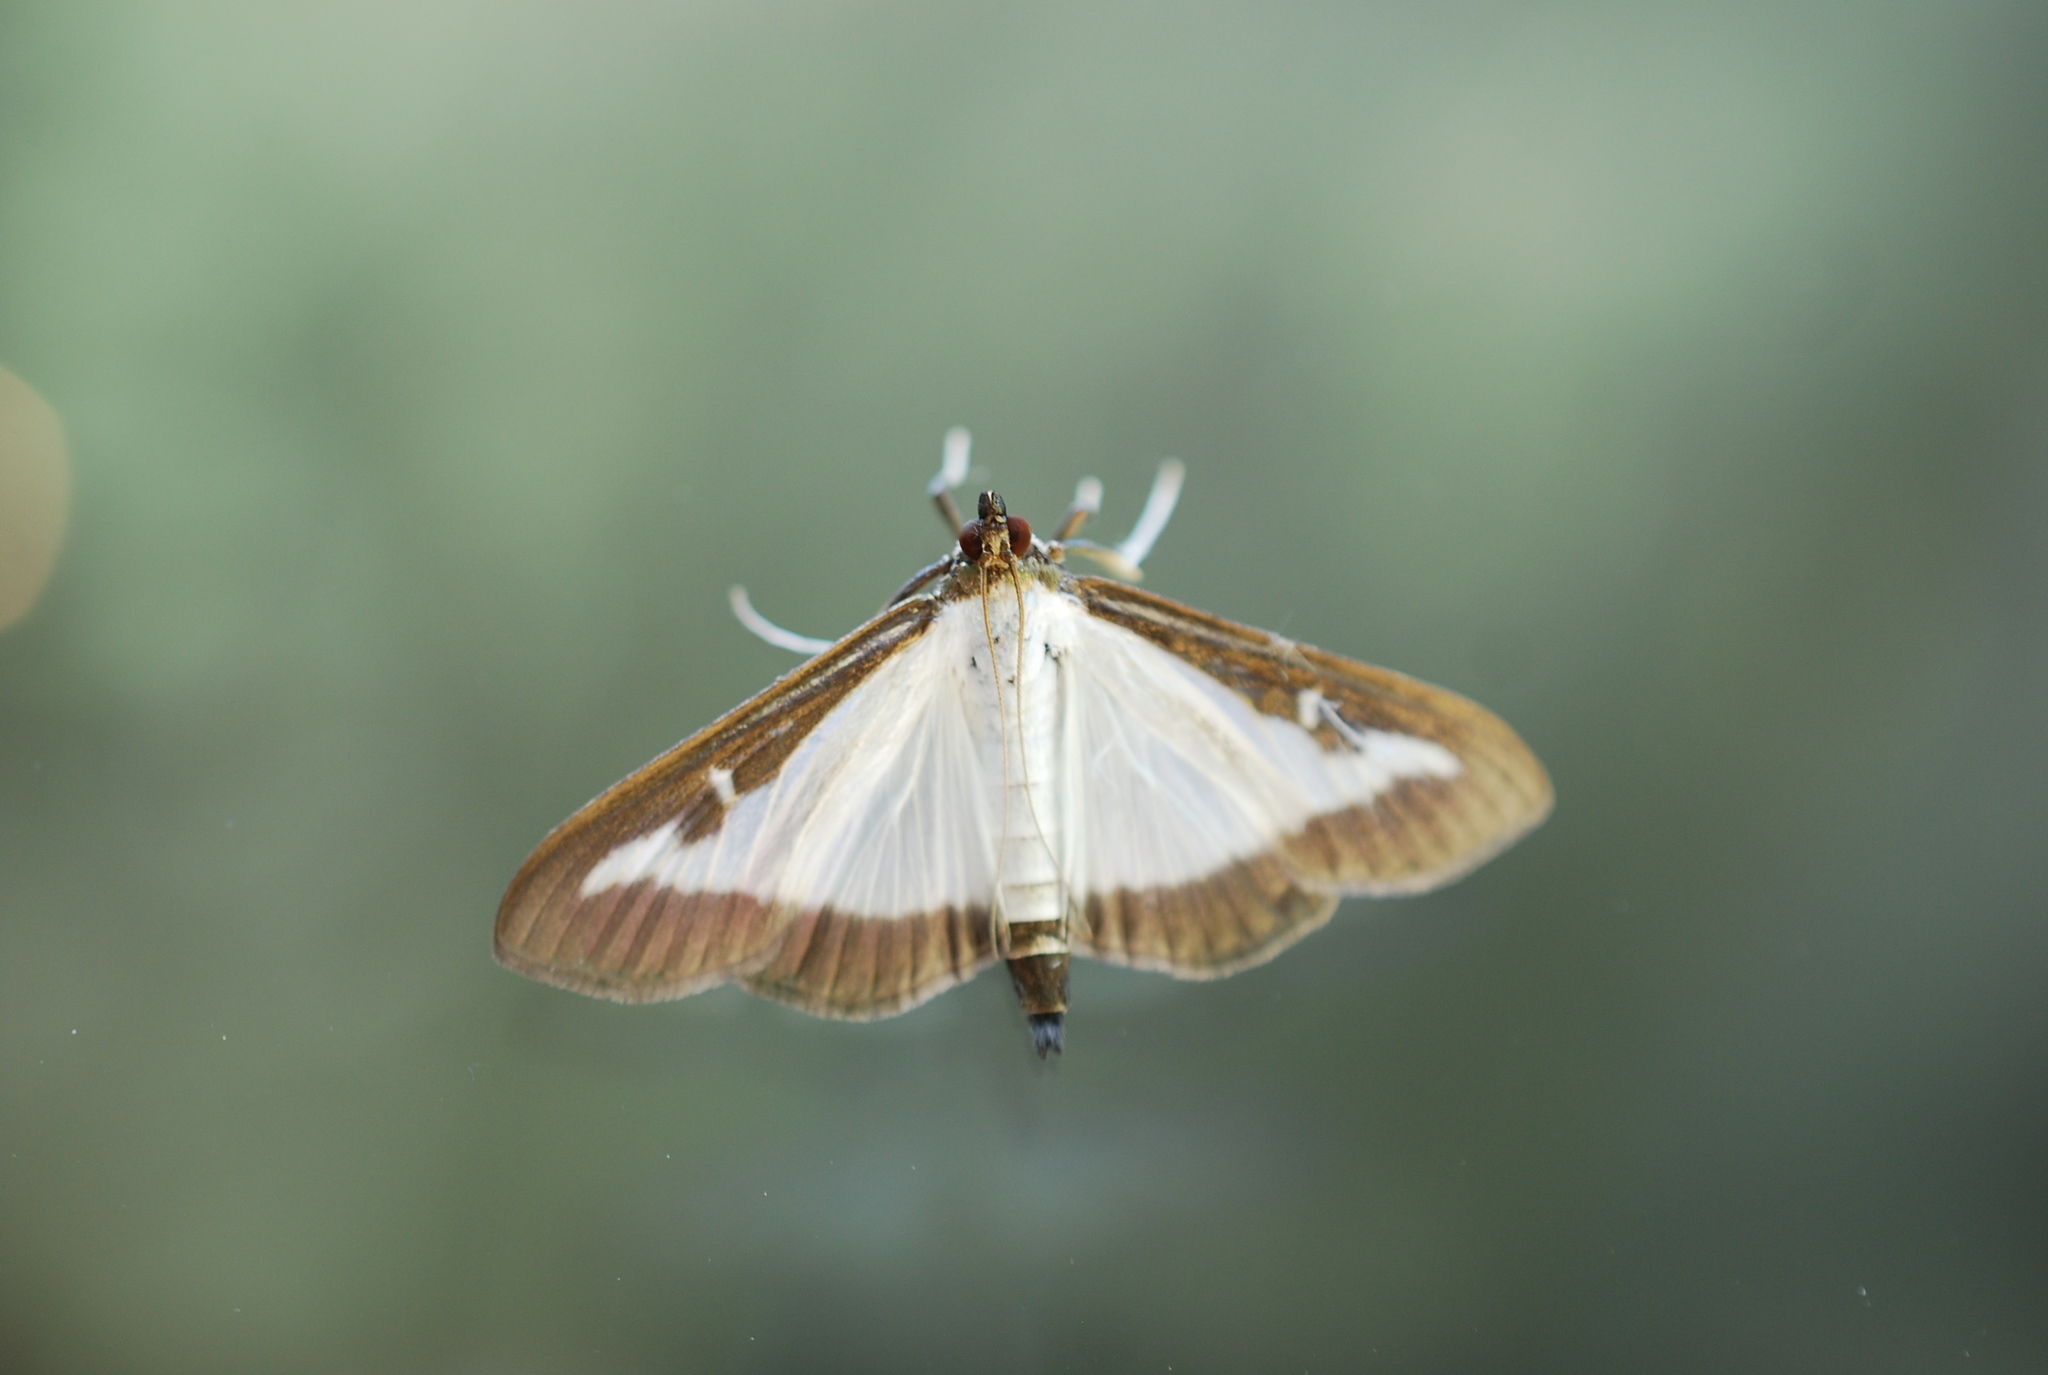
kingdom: Animalia
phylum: Arthropoda
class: Insecta
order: Lepidoptera
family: Crambidae
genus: Cydalima
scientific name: Cydalima perspectalis
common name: Box tree moth
